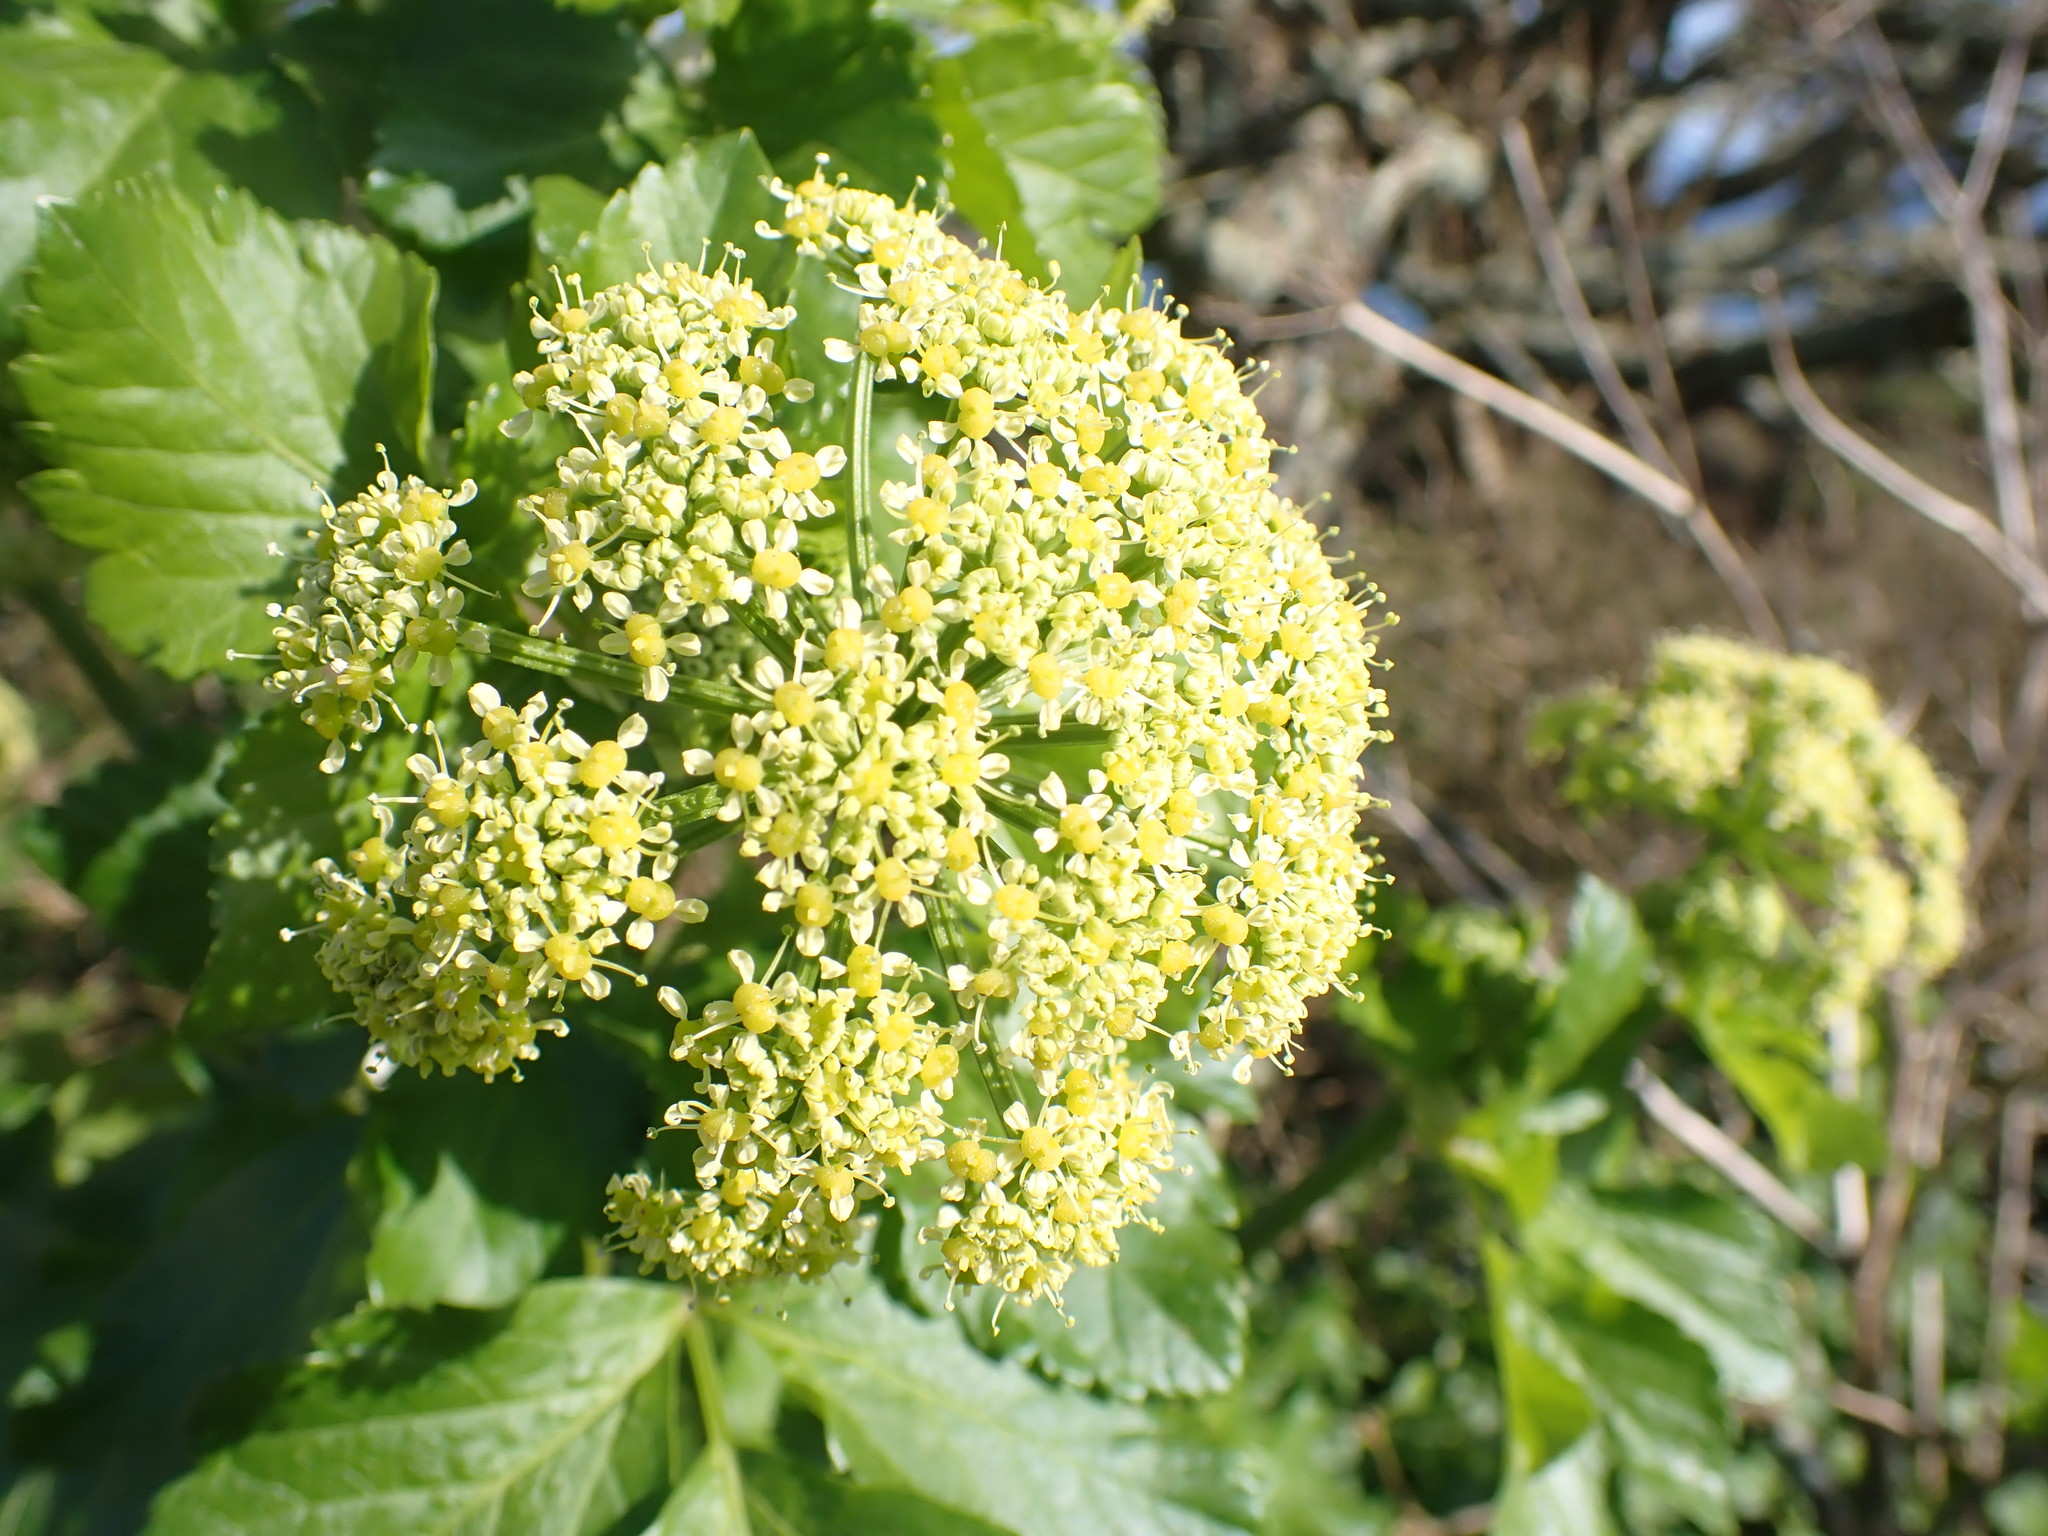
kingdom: Plantae
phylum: Tracheophyta
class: Magnoliopsida
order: Apiales
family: Apiaceae
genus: Smyrnium
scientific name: Smyrnium olusatrum
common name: Alexanders
